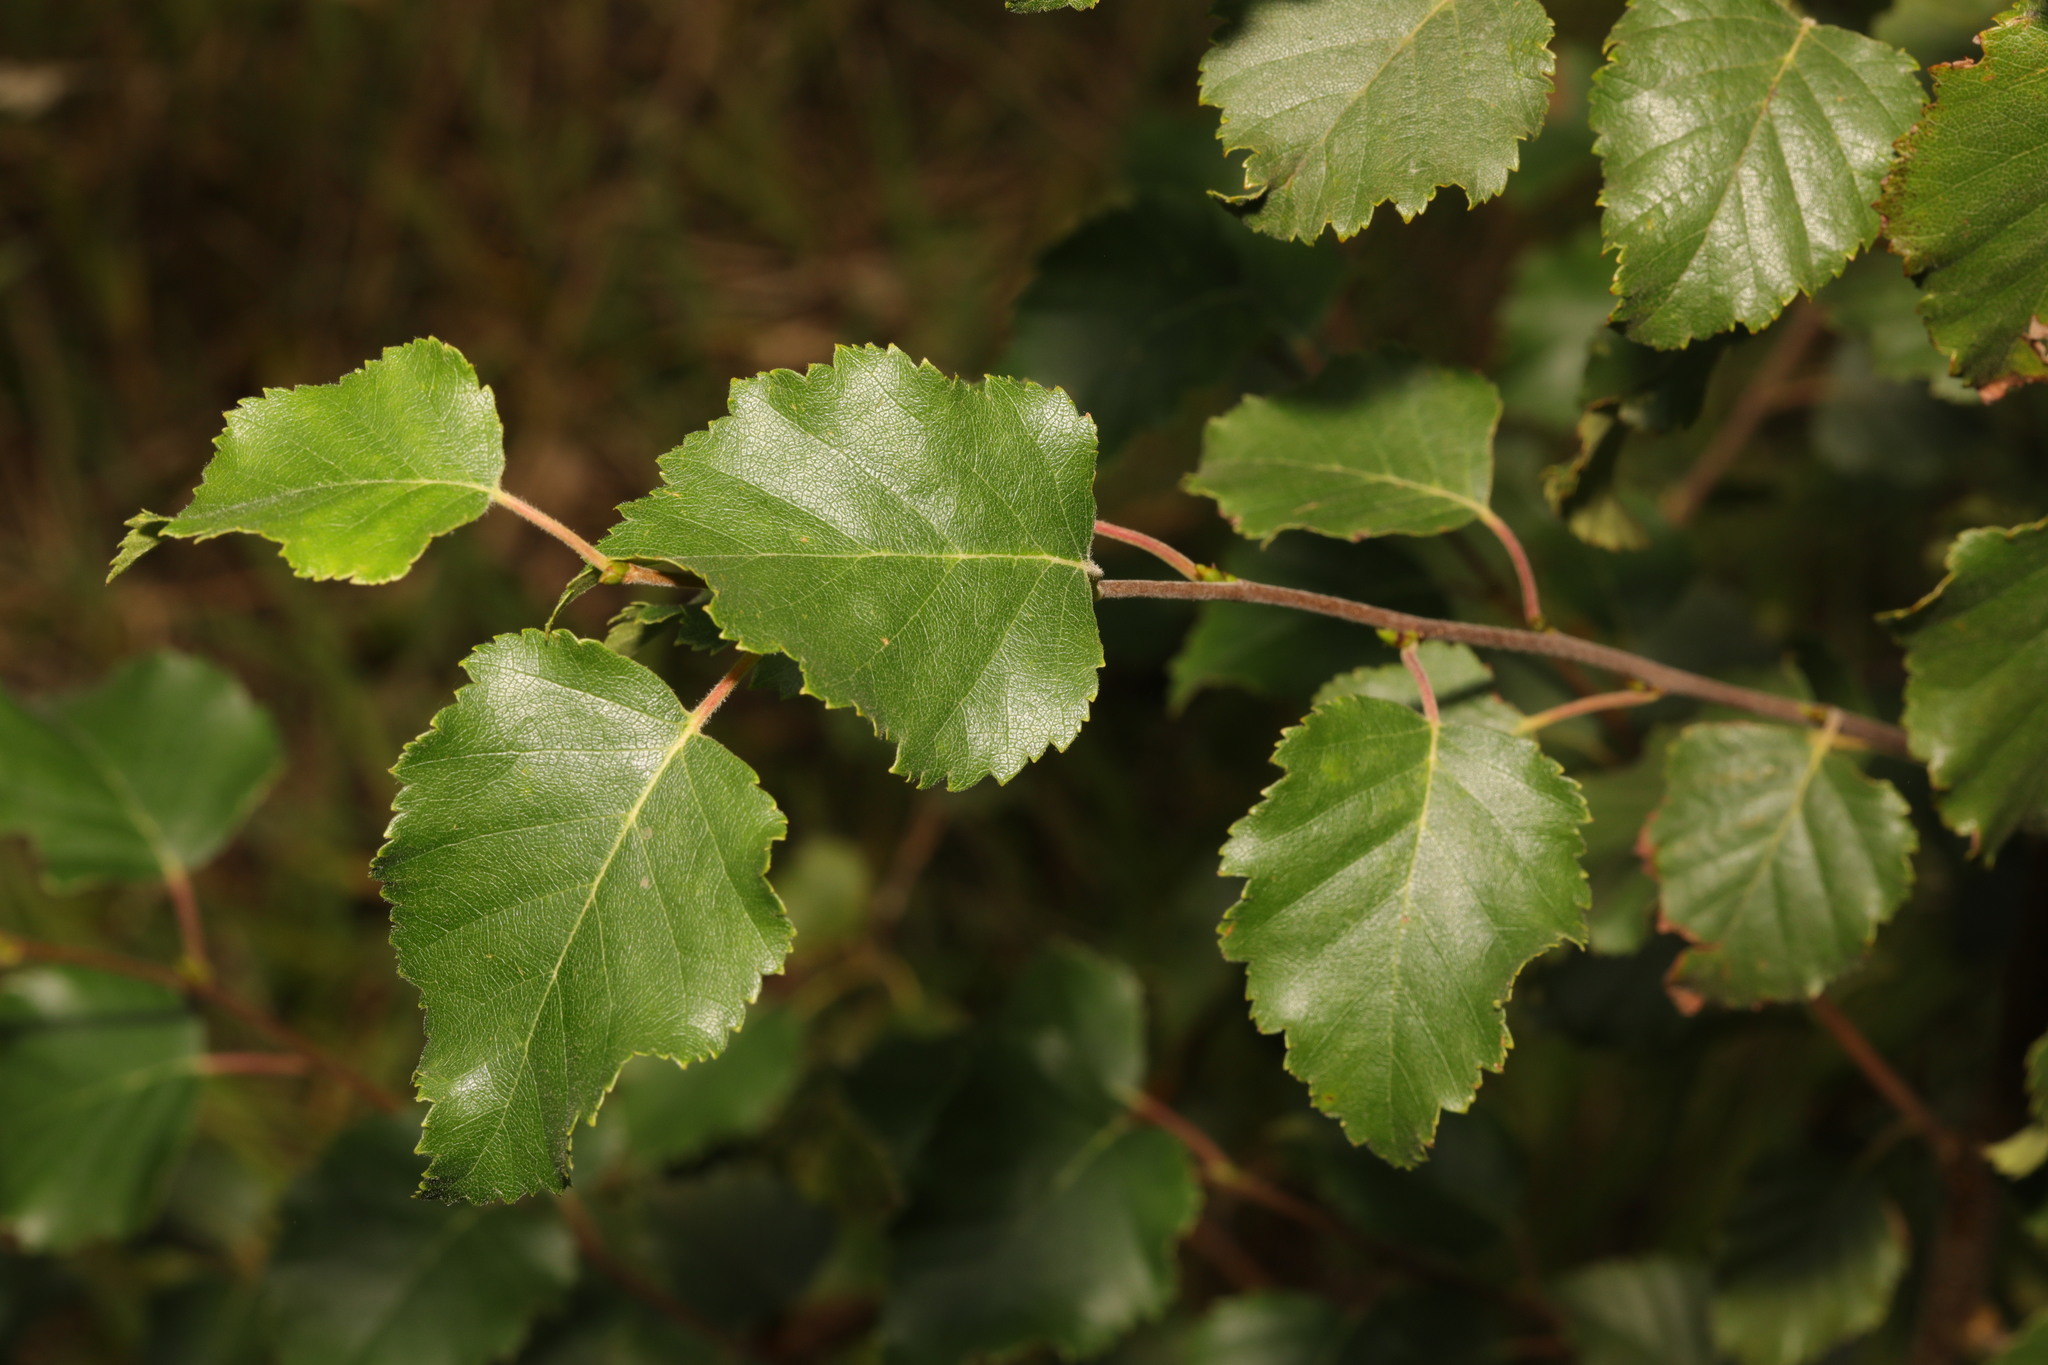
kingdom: Plantae
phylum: Tracheophyta
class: Magnoliopsida
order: Fagales
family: Betulaceae
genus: Betula
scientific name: Betula pubescens
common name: Downy birch
